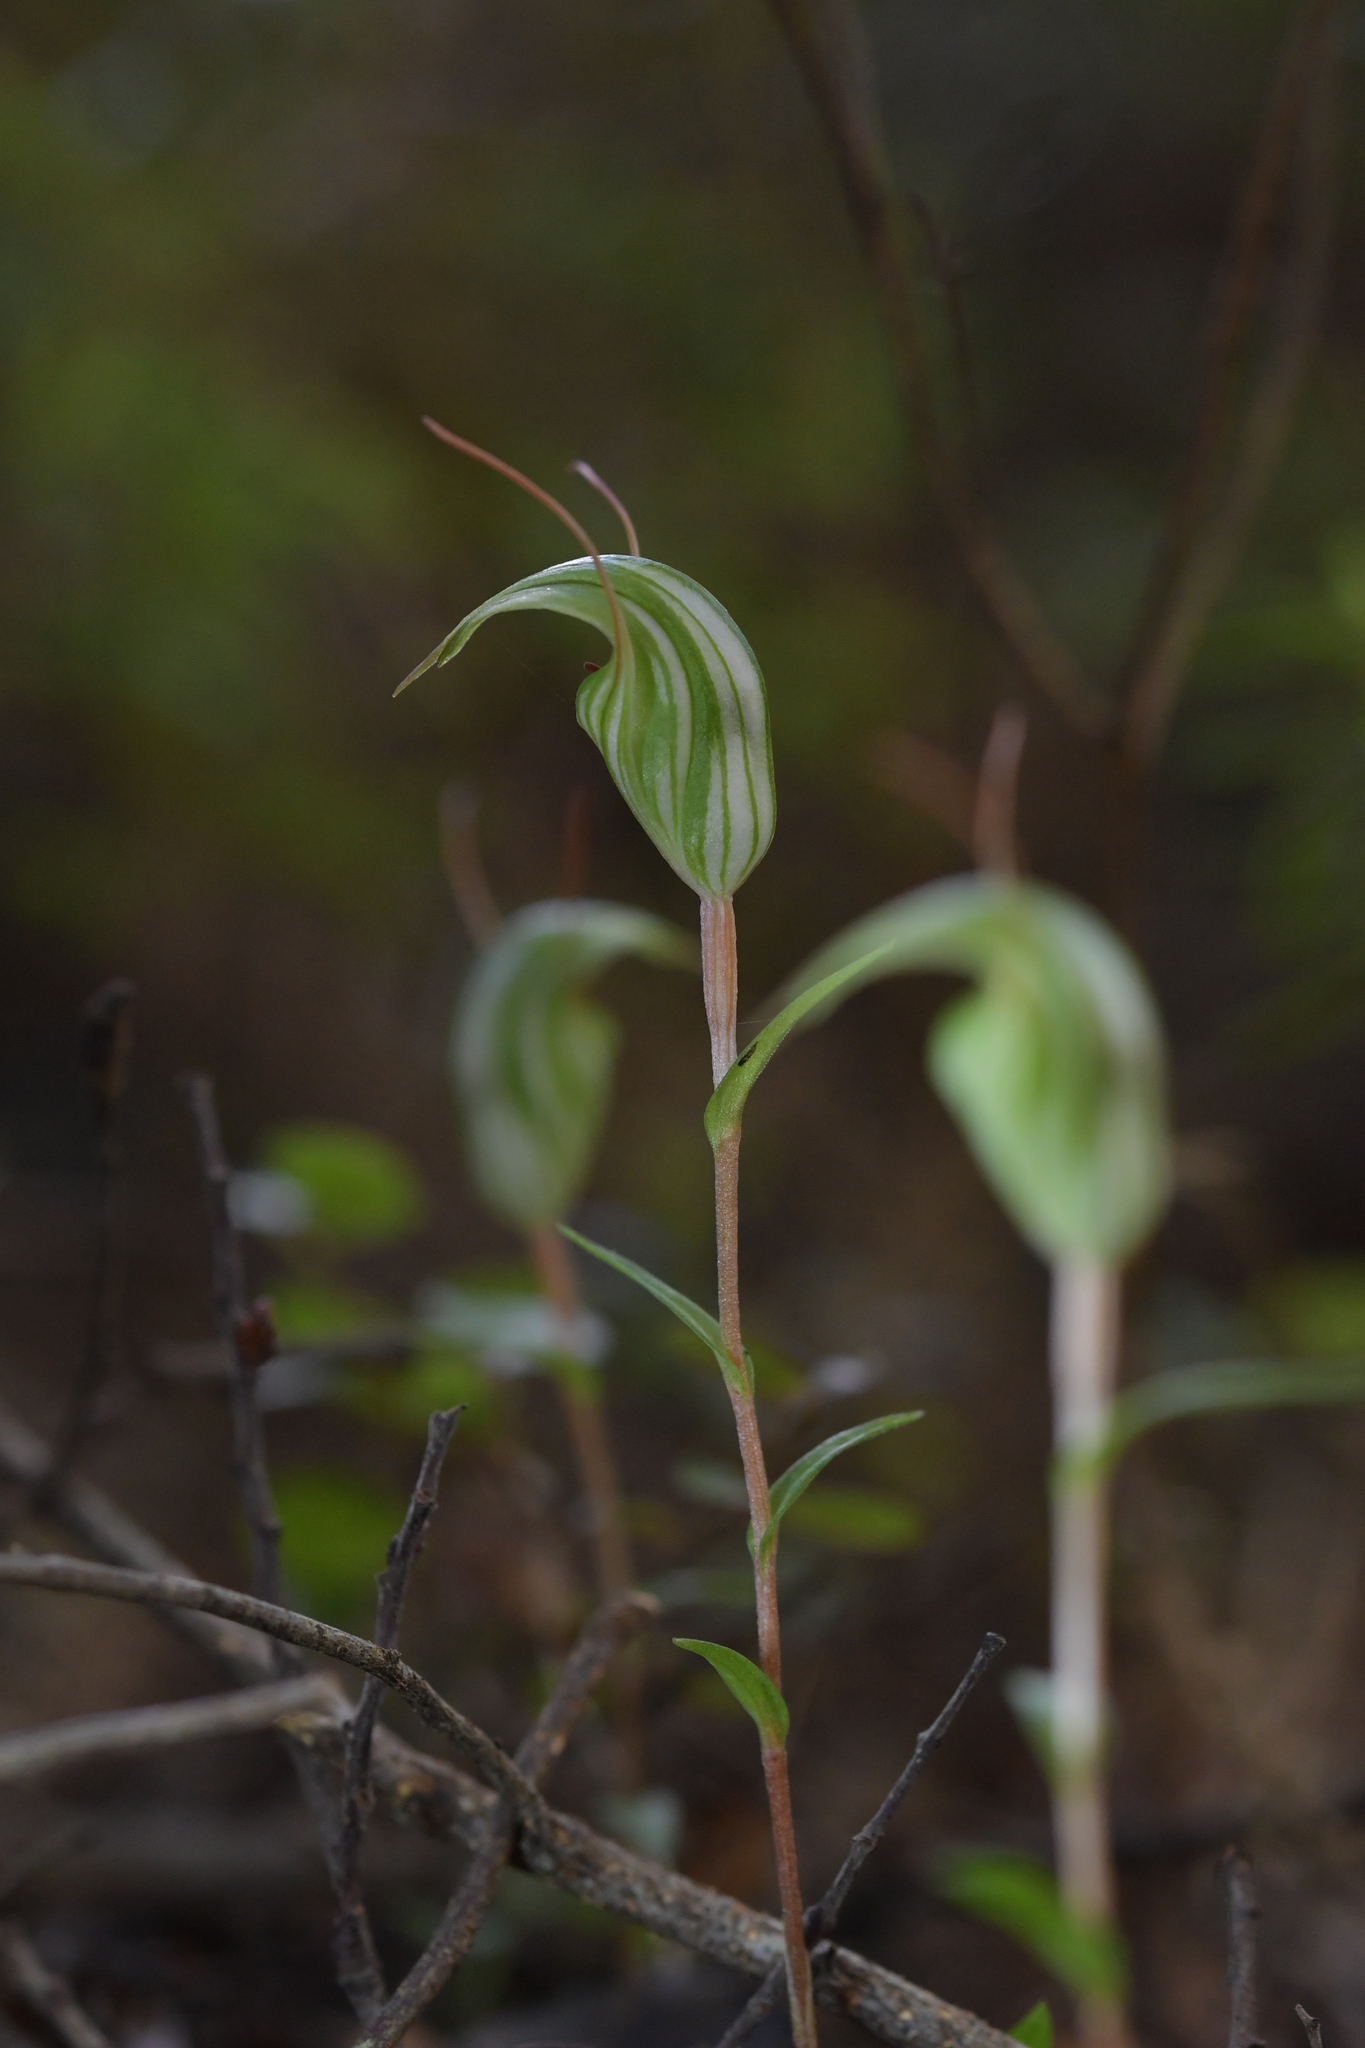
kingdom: Plantae
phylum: Tracheophyta
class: Liliopsida
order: Asparagales
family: Orchidaceae
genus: Pterostylis
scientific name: Pterostylis alobula
